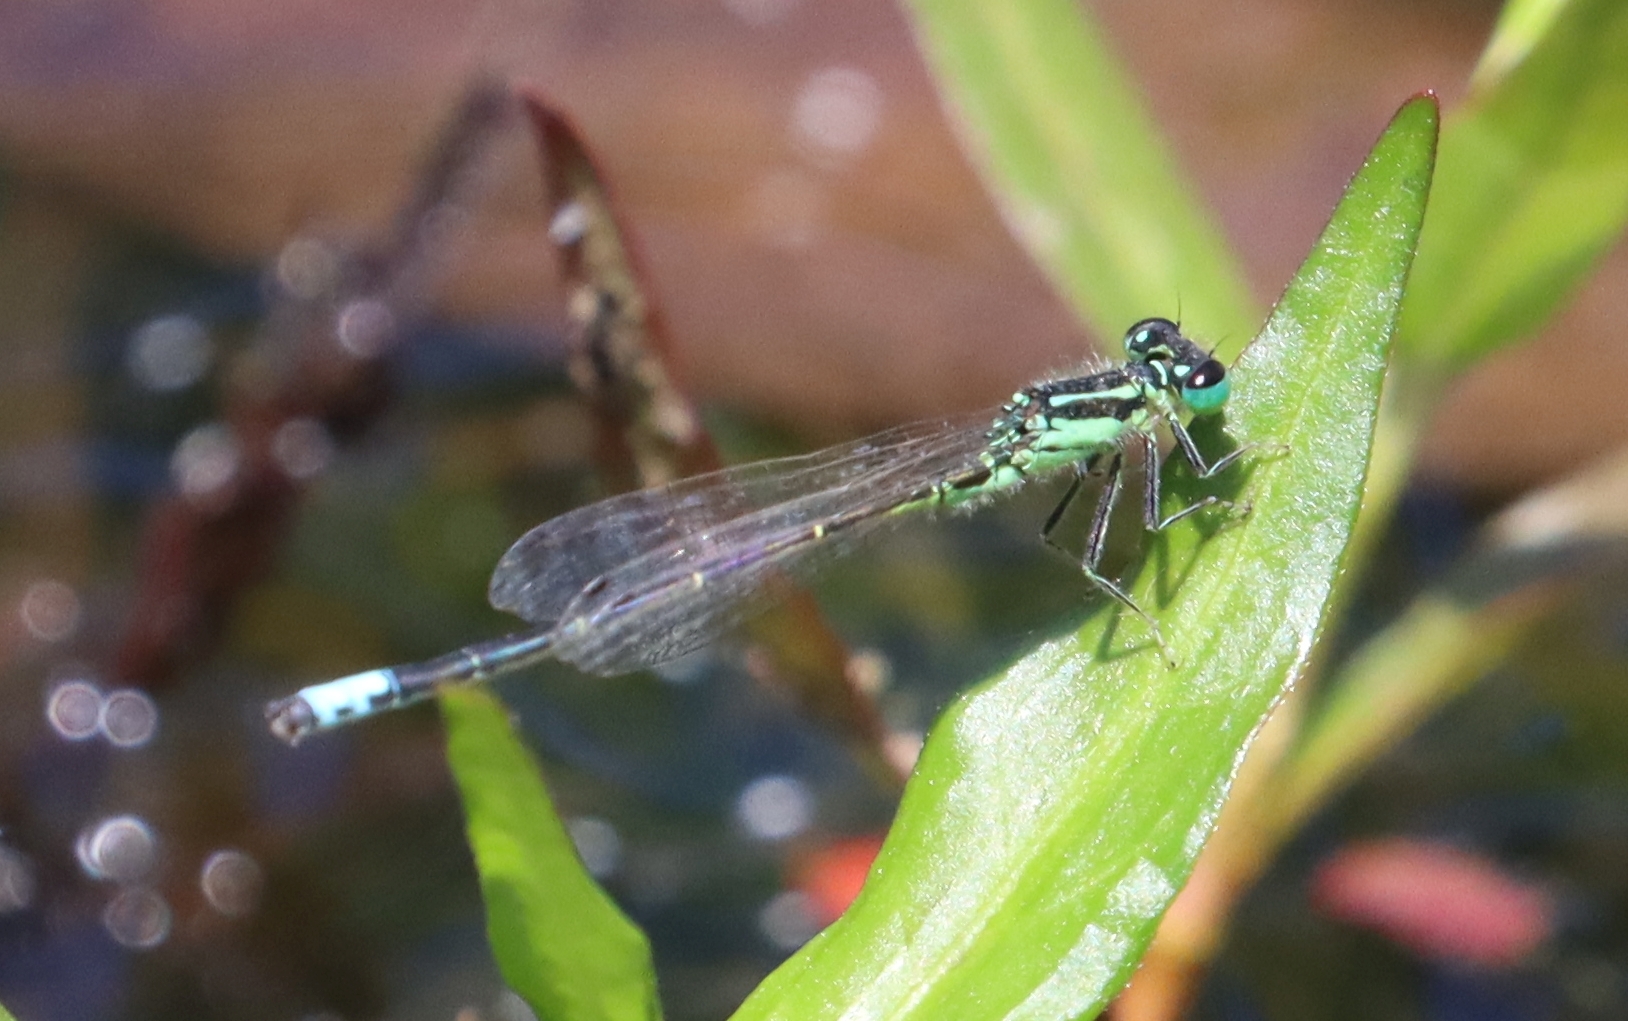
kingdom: Animalia
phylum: Arthropoda
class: Insecta
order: Odonata
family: Coenagrionidae
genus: Ischnura
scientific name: Ischnura verticalis
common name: Eastern forktail
